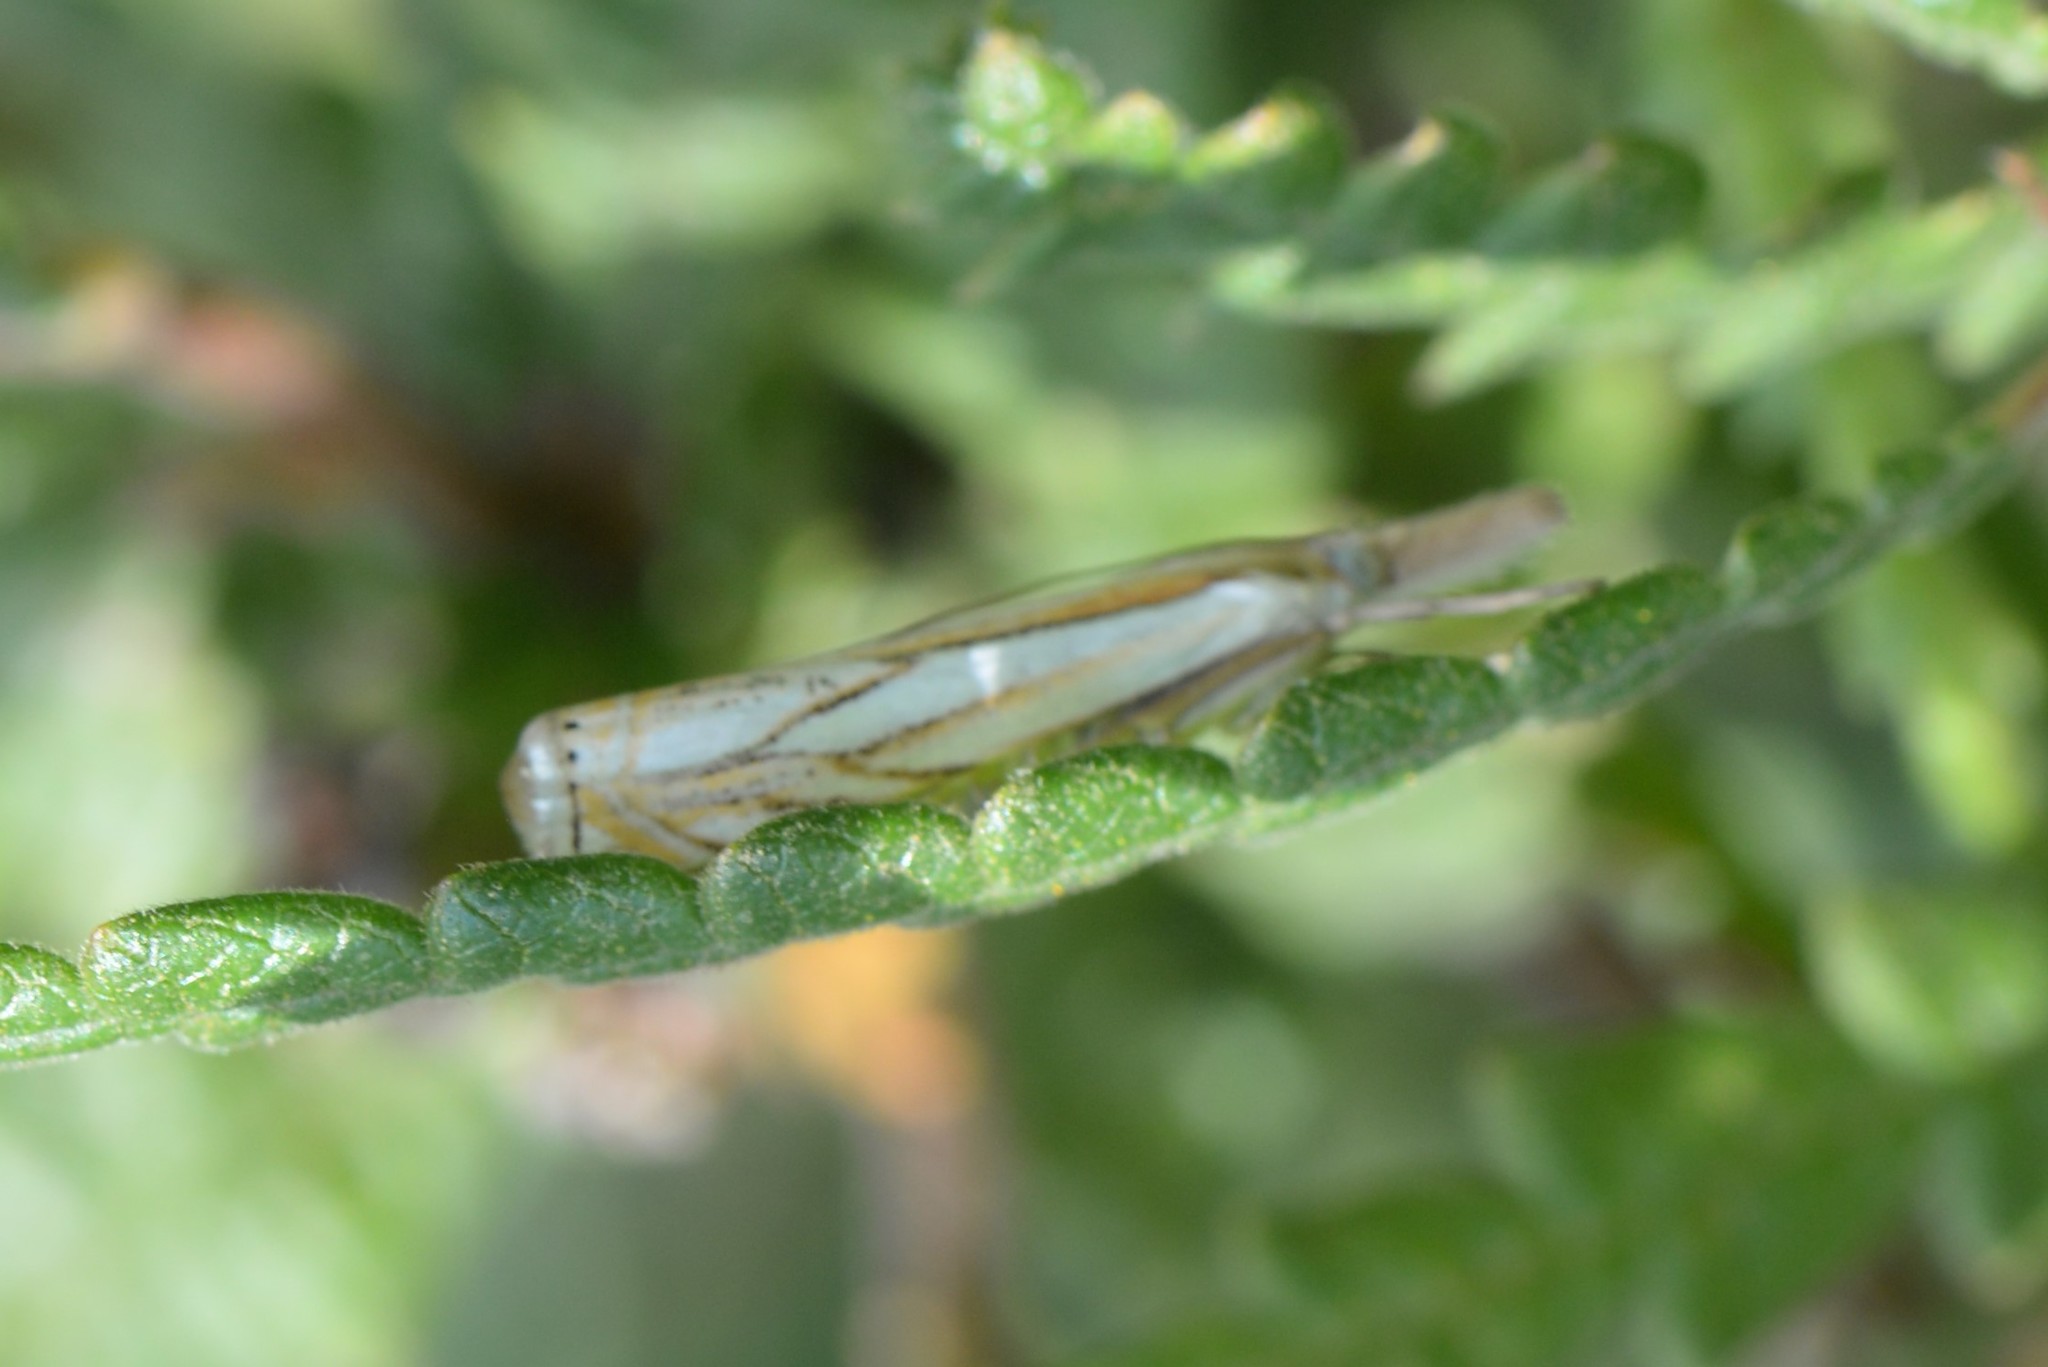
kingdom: Animalia
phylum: Arthropoda
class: Insecta
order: Lepidoptera
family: Crambidae
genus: Crambus
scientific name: Crambus saltuellus
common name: Pasture grass-veneer
